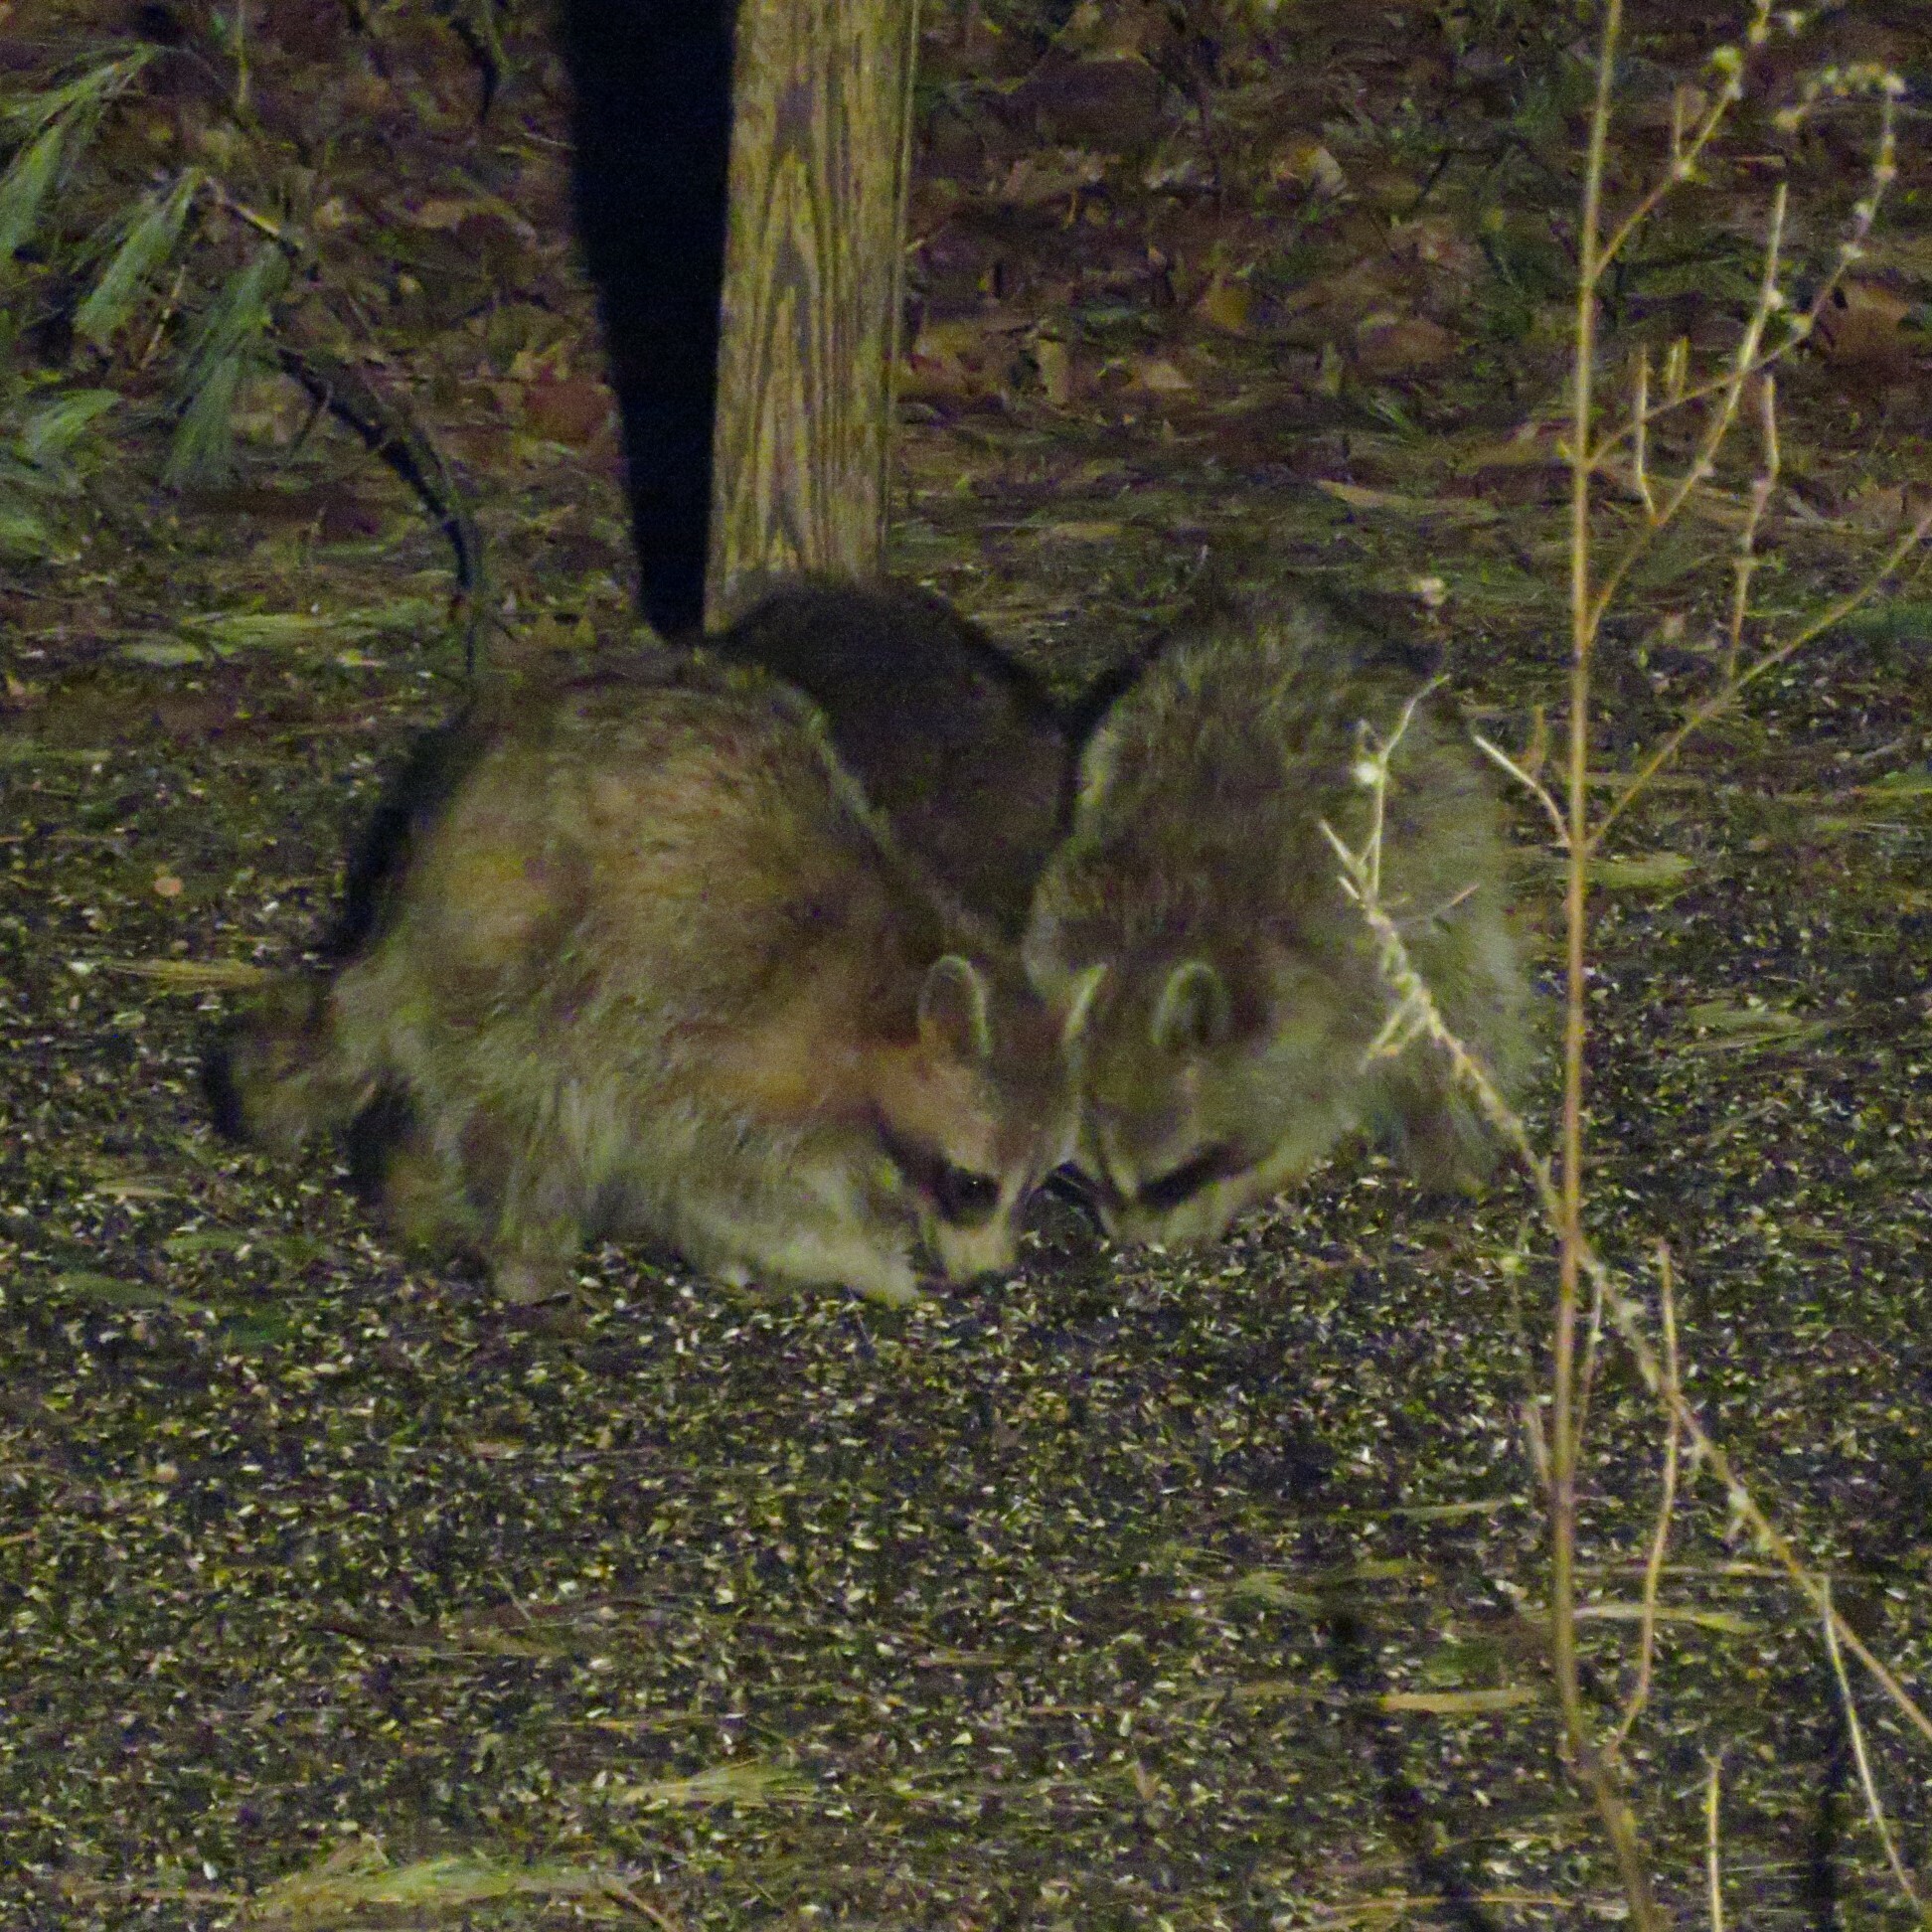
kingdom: Animalia
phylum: Chordata
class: Mammalia
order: Carnivora
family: Procyonidae
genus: Procyon
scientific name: Procyon lotor
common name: Raccoon
